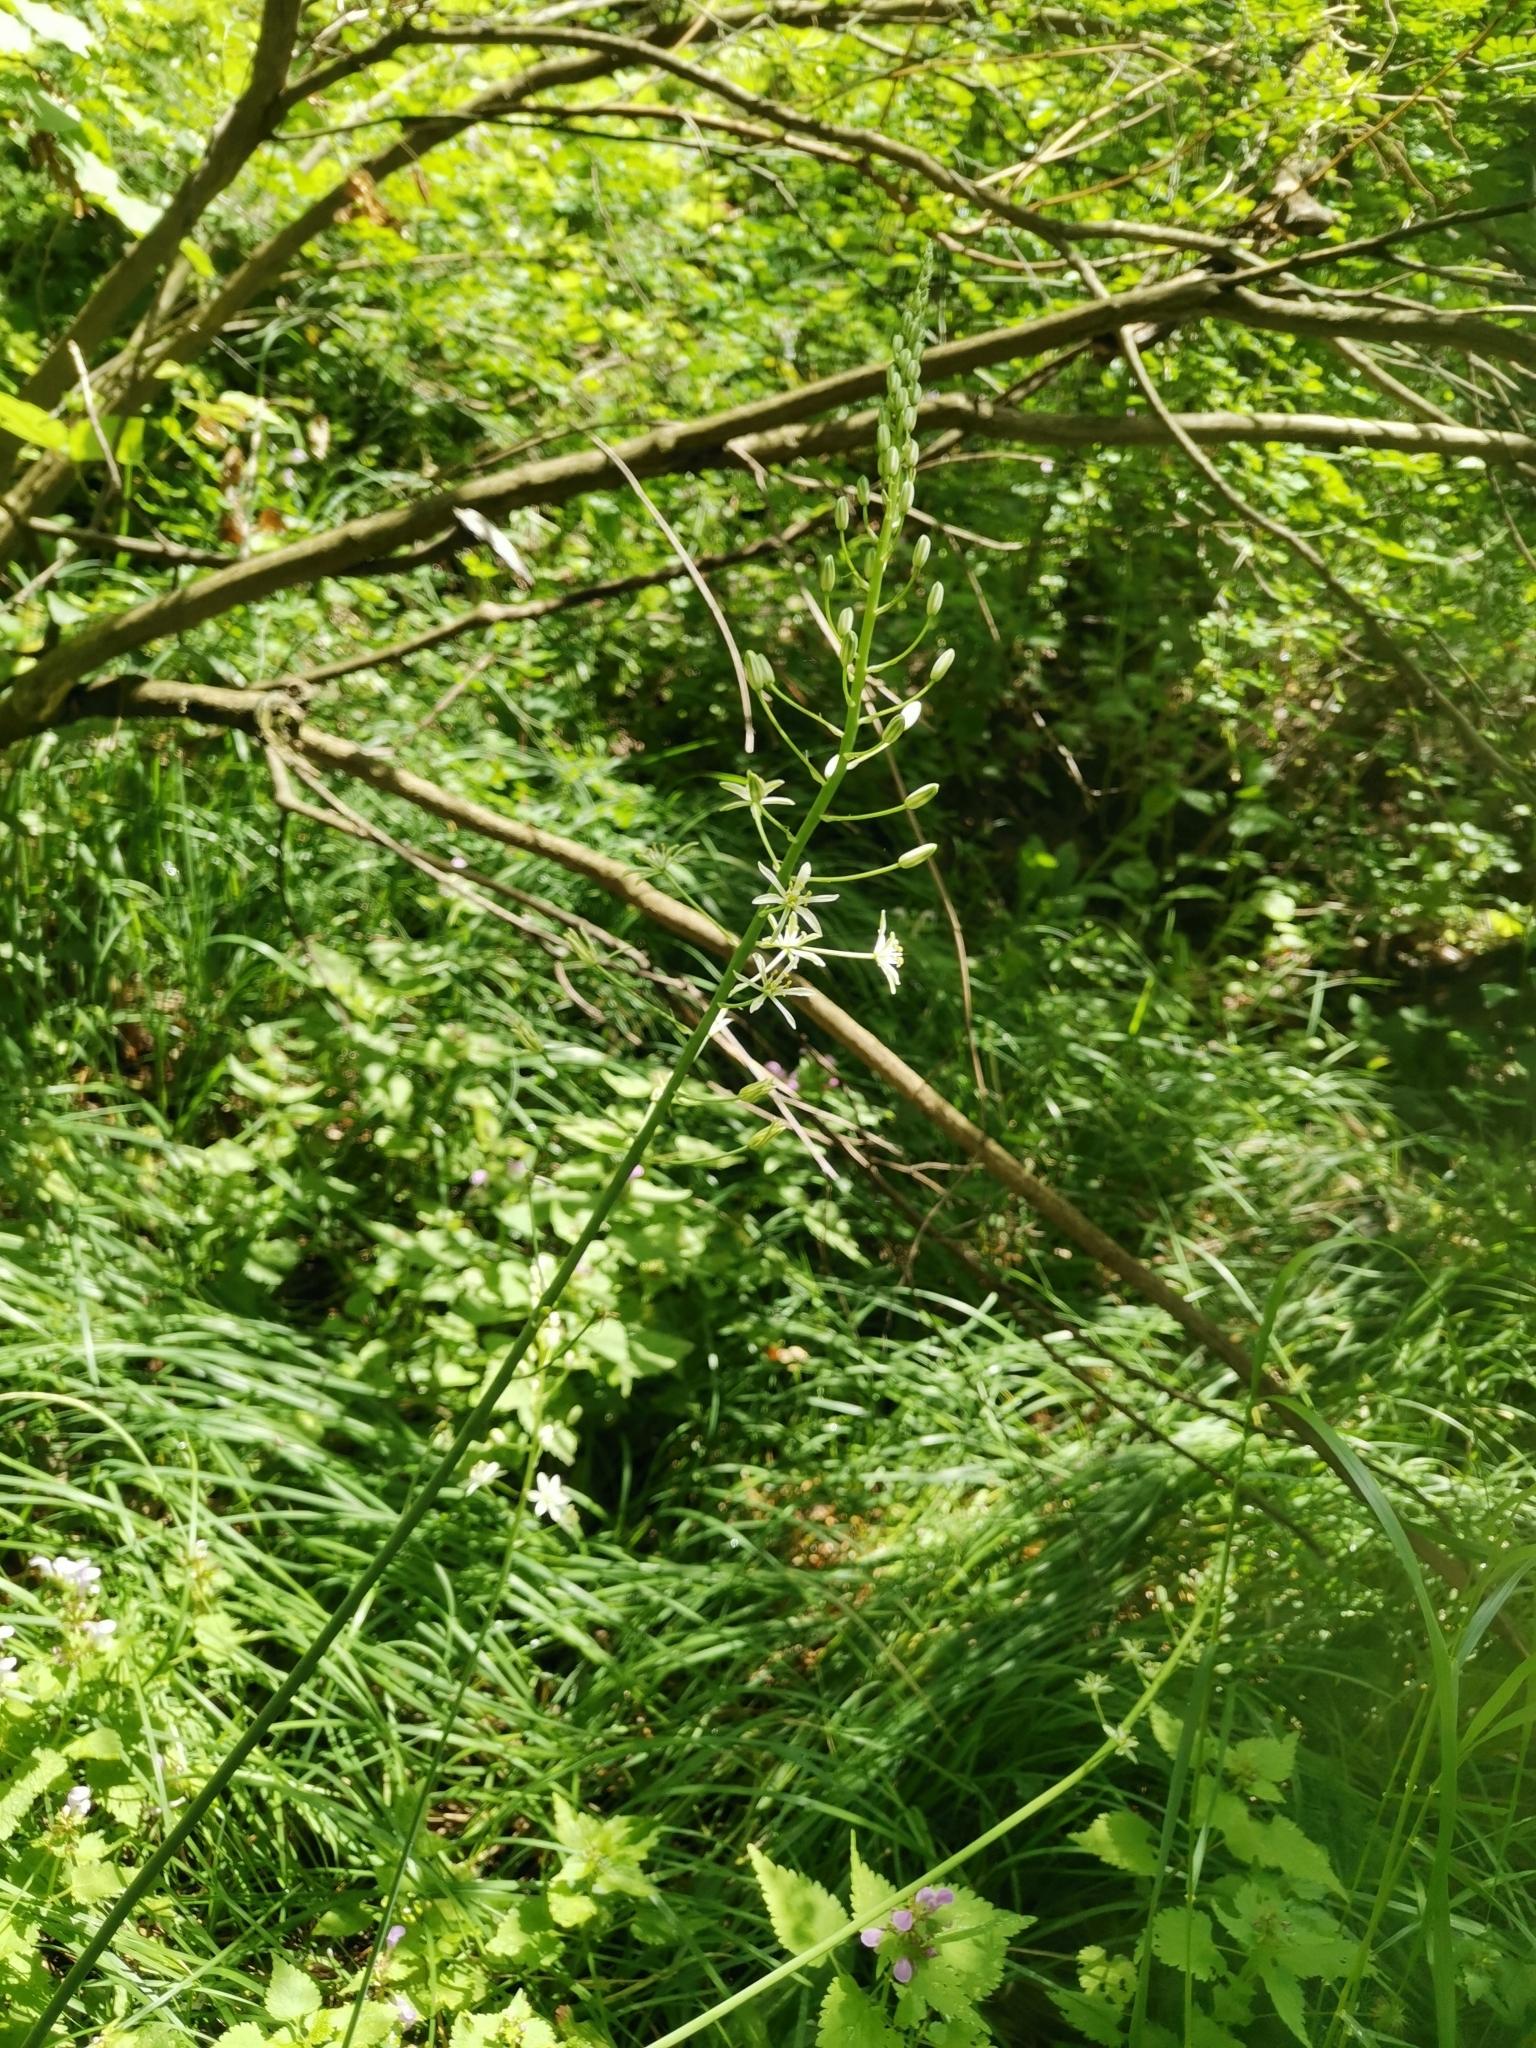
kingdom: Plantae
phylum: Tracheophyta
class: Liliopsida
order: Asparagales
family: Asparagaceae
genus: Ornithogalum
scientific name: Ornithogalum sphaerocarpum
